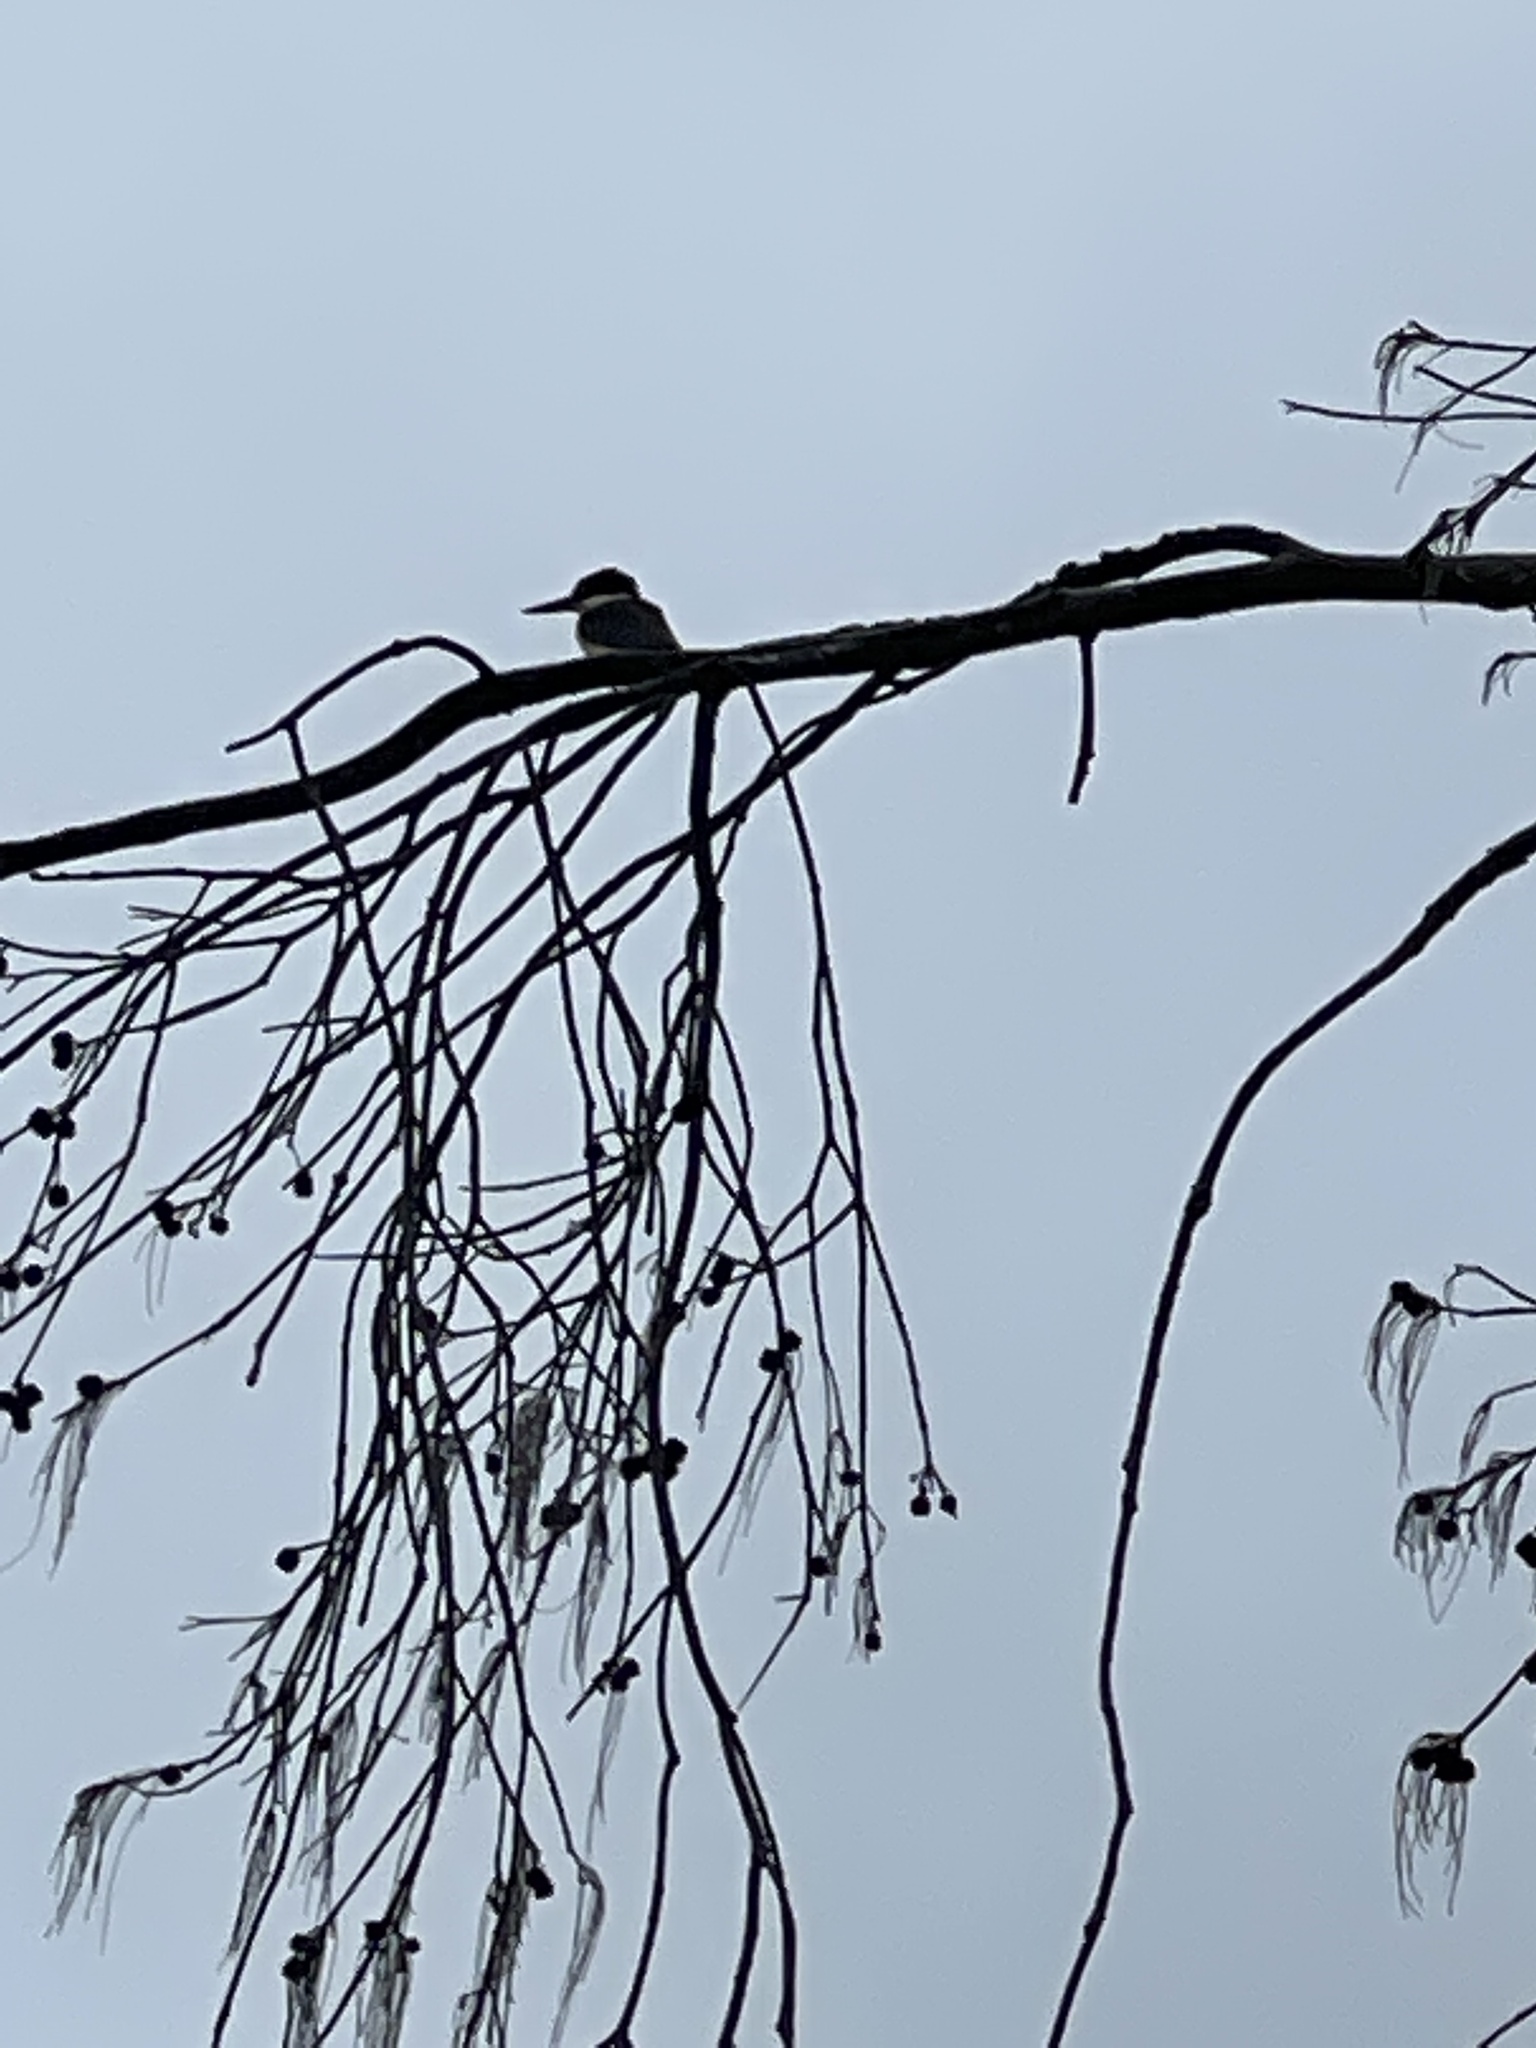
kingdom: Animalia
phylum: Chordata
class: Aves
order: Coraciiformes
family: Alcedinidae
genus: Todiramphus
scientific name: Todiramphus sanctus
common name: Sacred kingfisher
